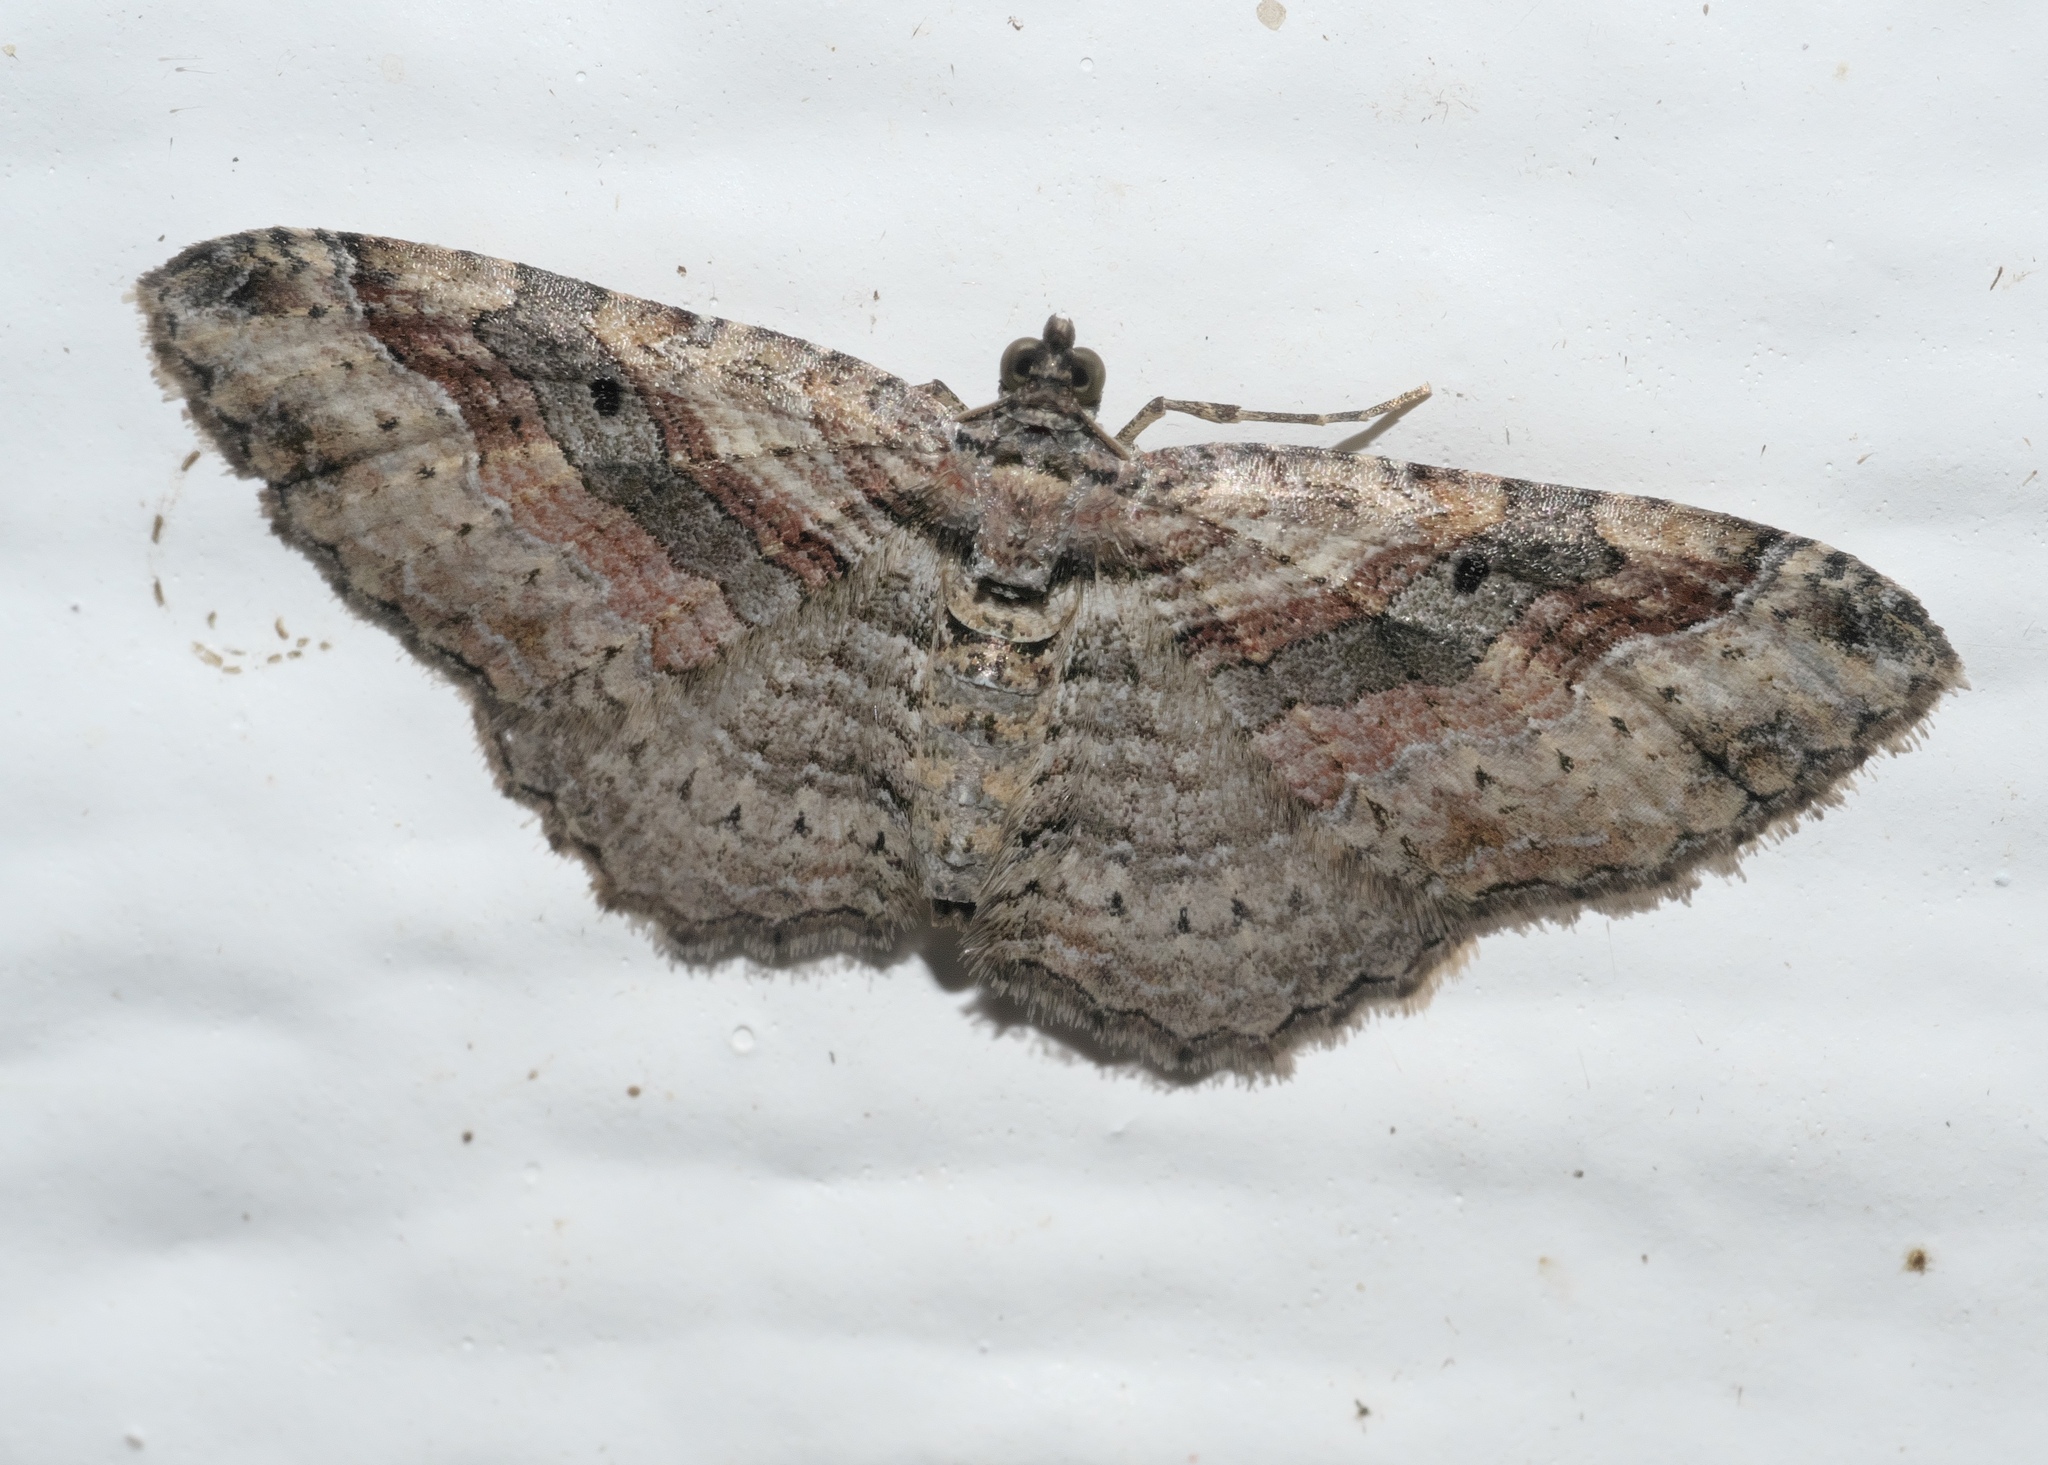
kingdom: Animalia
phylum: Arthropoda
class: Insecta
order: Lepidoptera
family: Geometridae
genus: Costaconvexa
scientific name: Costaconvexa centrostrigaria
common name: Bent-line carpet
